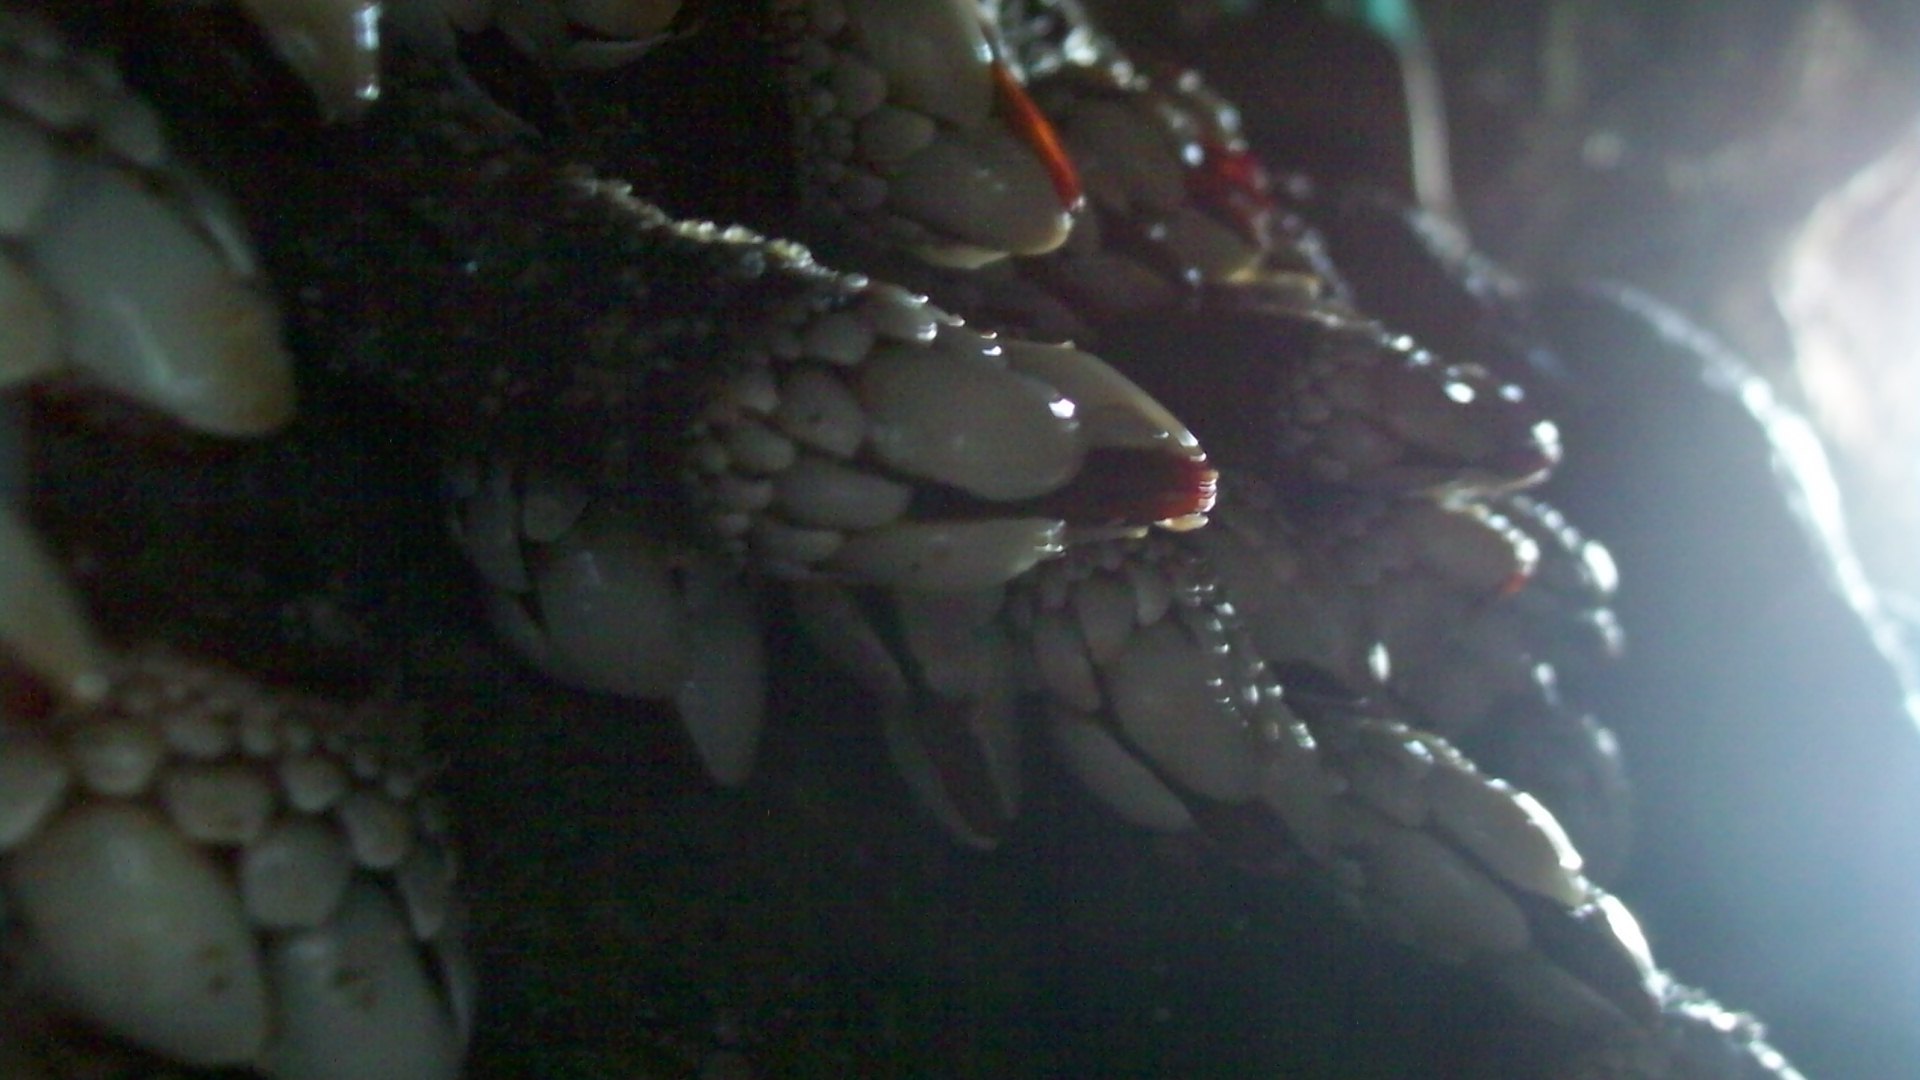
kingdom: Animalia
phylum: Arthropoda
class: Maxillopoda
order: Pedunculata
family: Pollicipedidae
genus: Pollicipes
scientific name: Pollicipes polymerus
